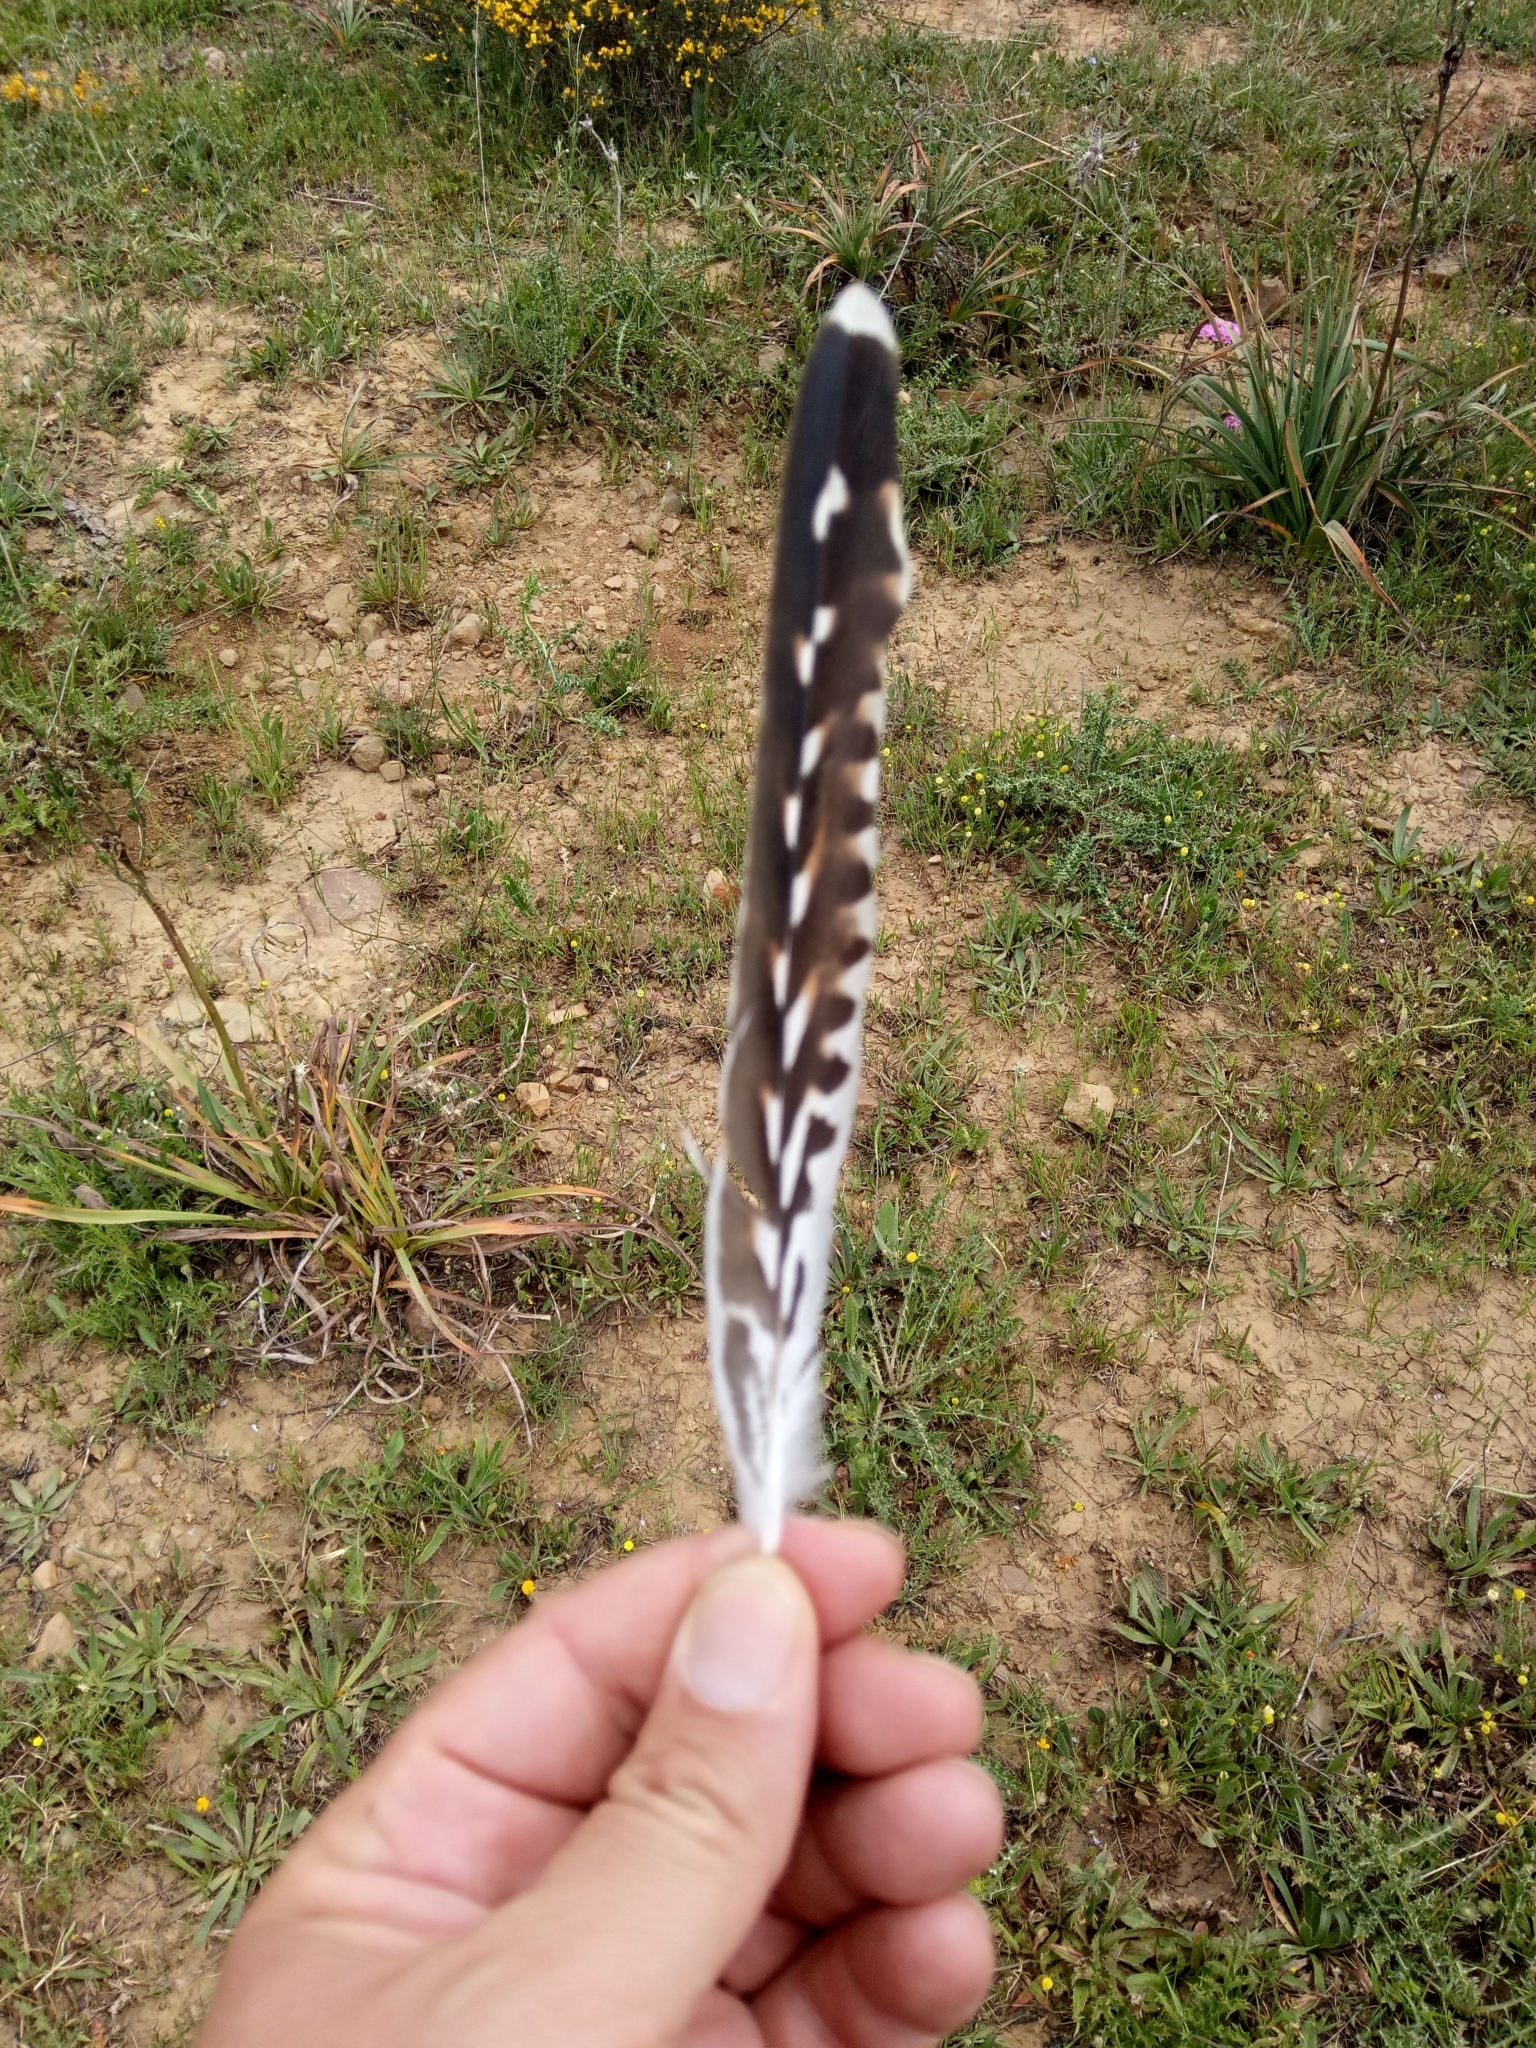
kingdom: Animalia
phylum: Chordata
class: Aves
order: Cuculiformes
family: Cuculidae
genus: Cuculus
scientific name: Cuculus canorus
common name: Common cuckoo
